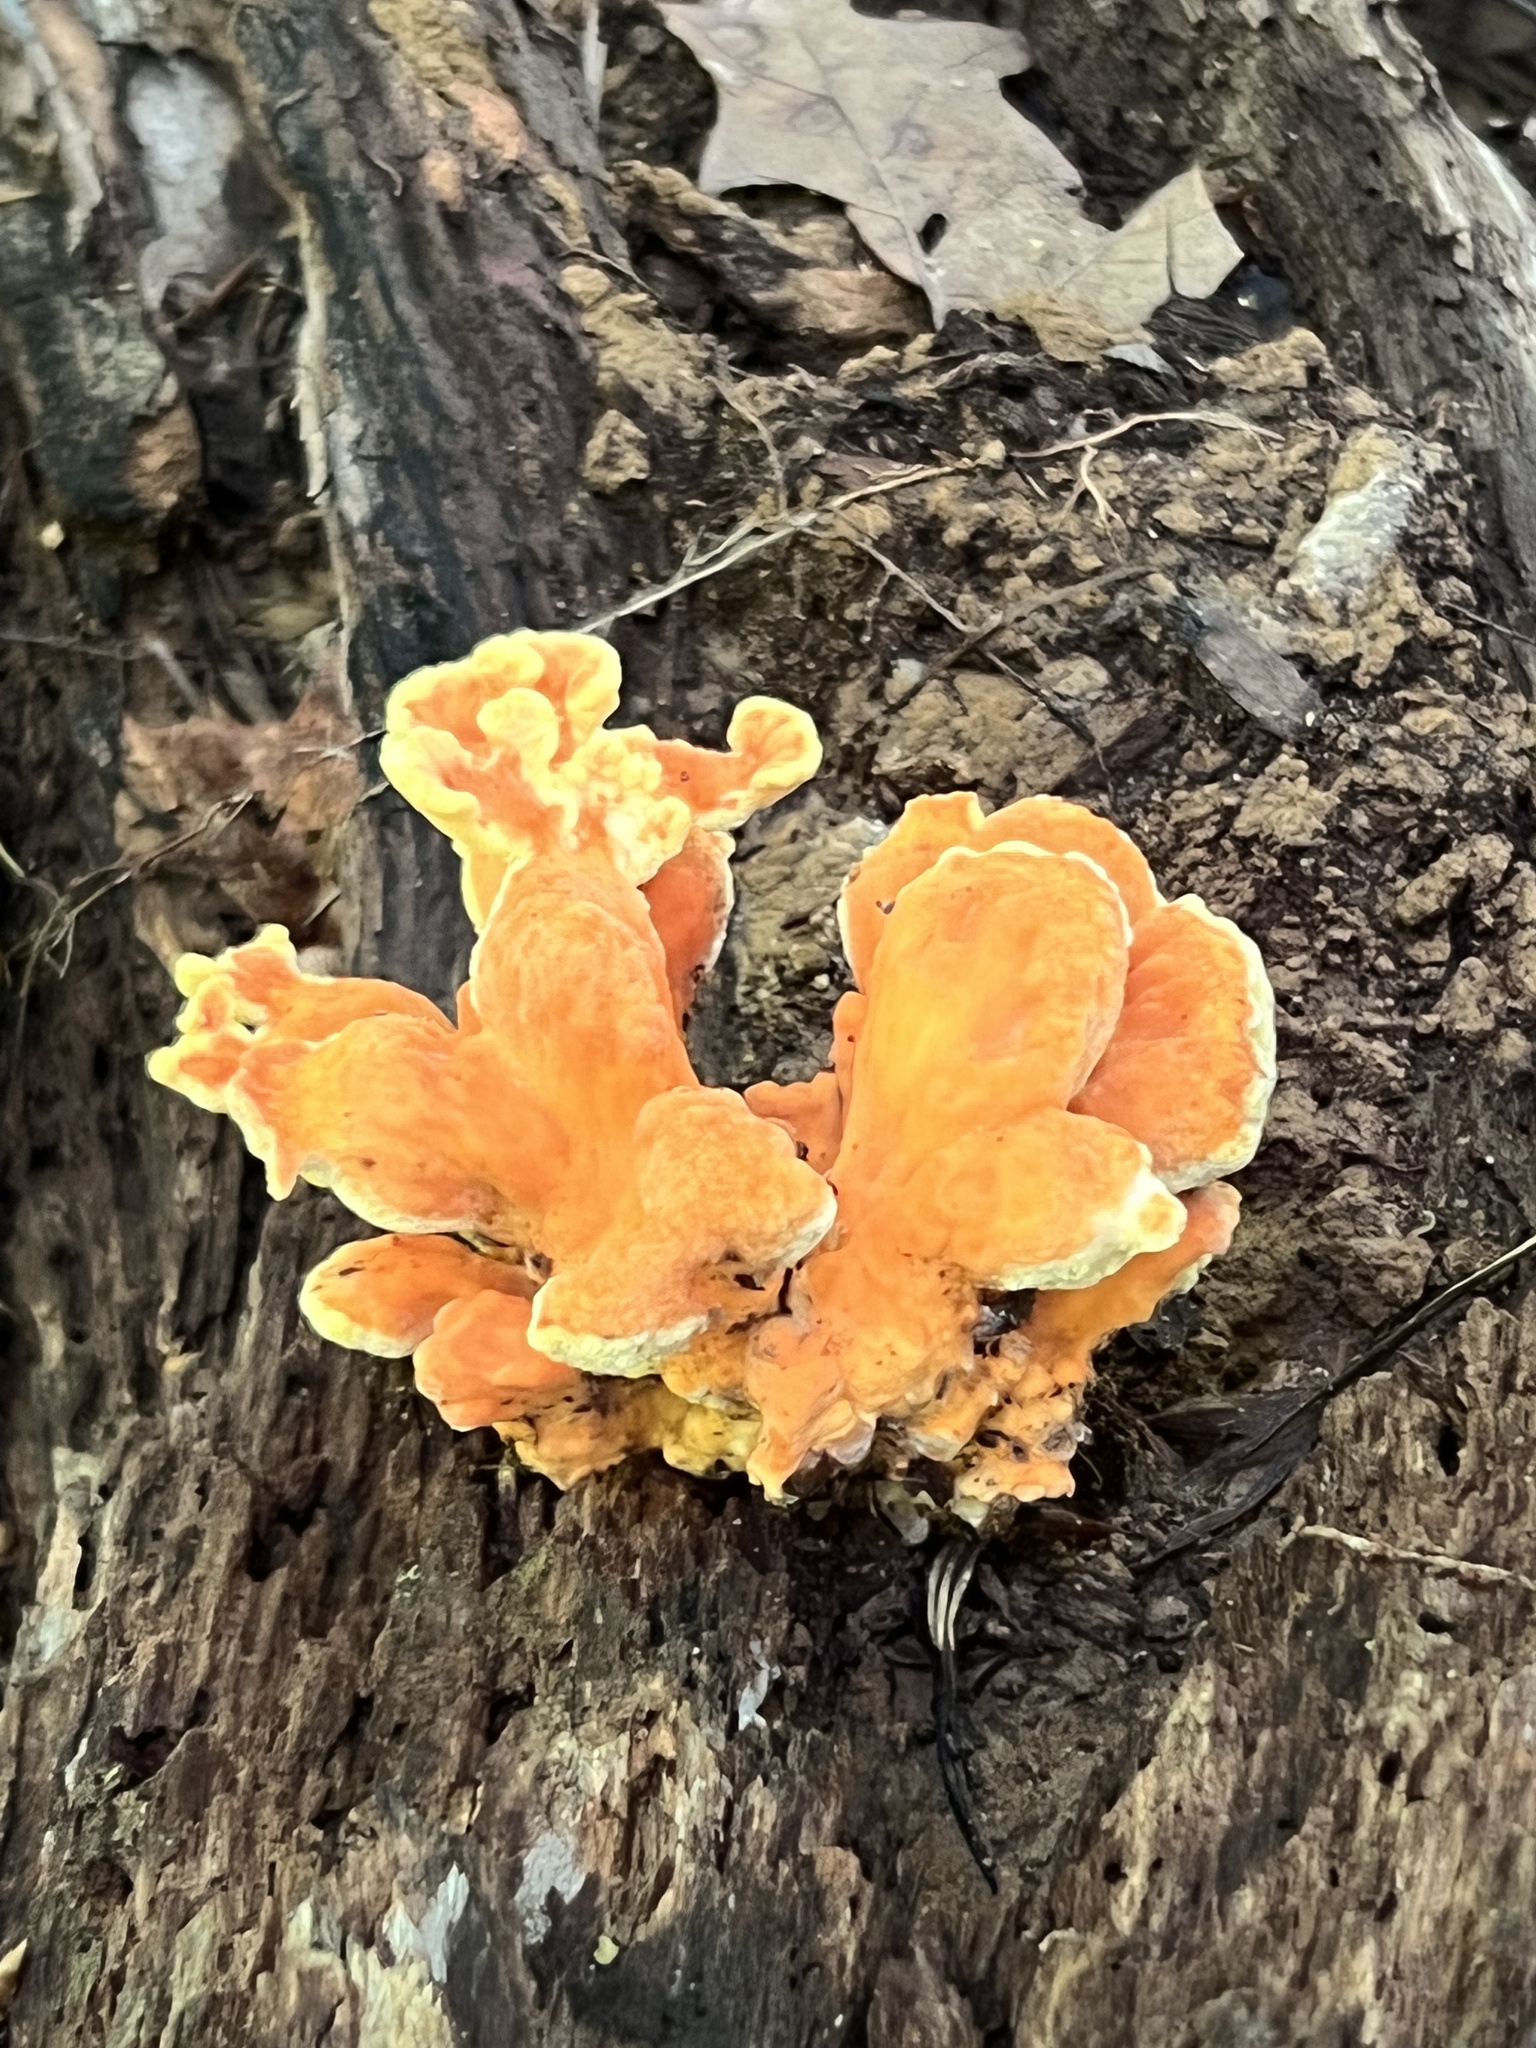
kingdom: Fungi
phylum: Basidiomycota
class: Agaricomycetes
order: Polyporales
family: Laetiporaceae
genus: Laetiporus
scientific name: Laetiporus sulphureus
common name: Chicken of the woods
